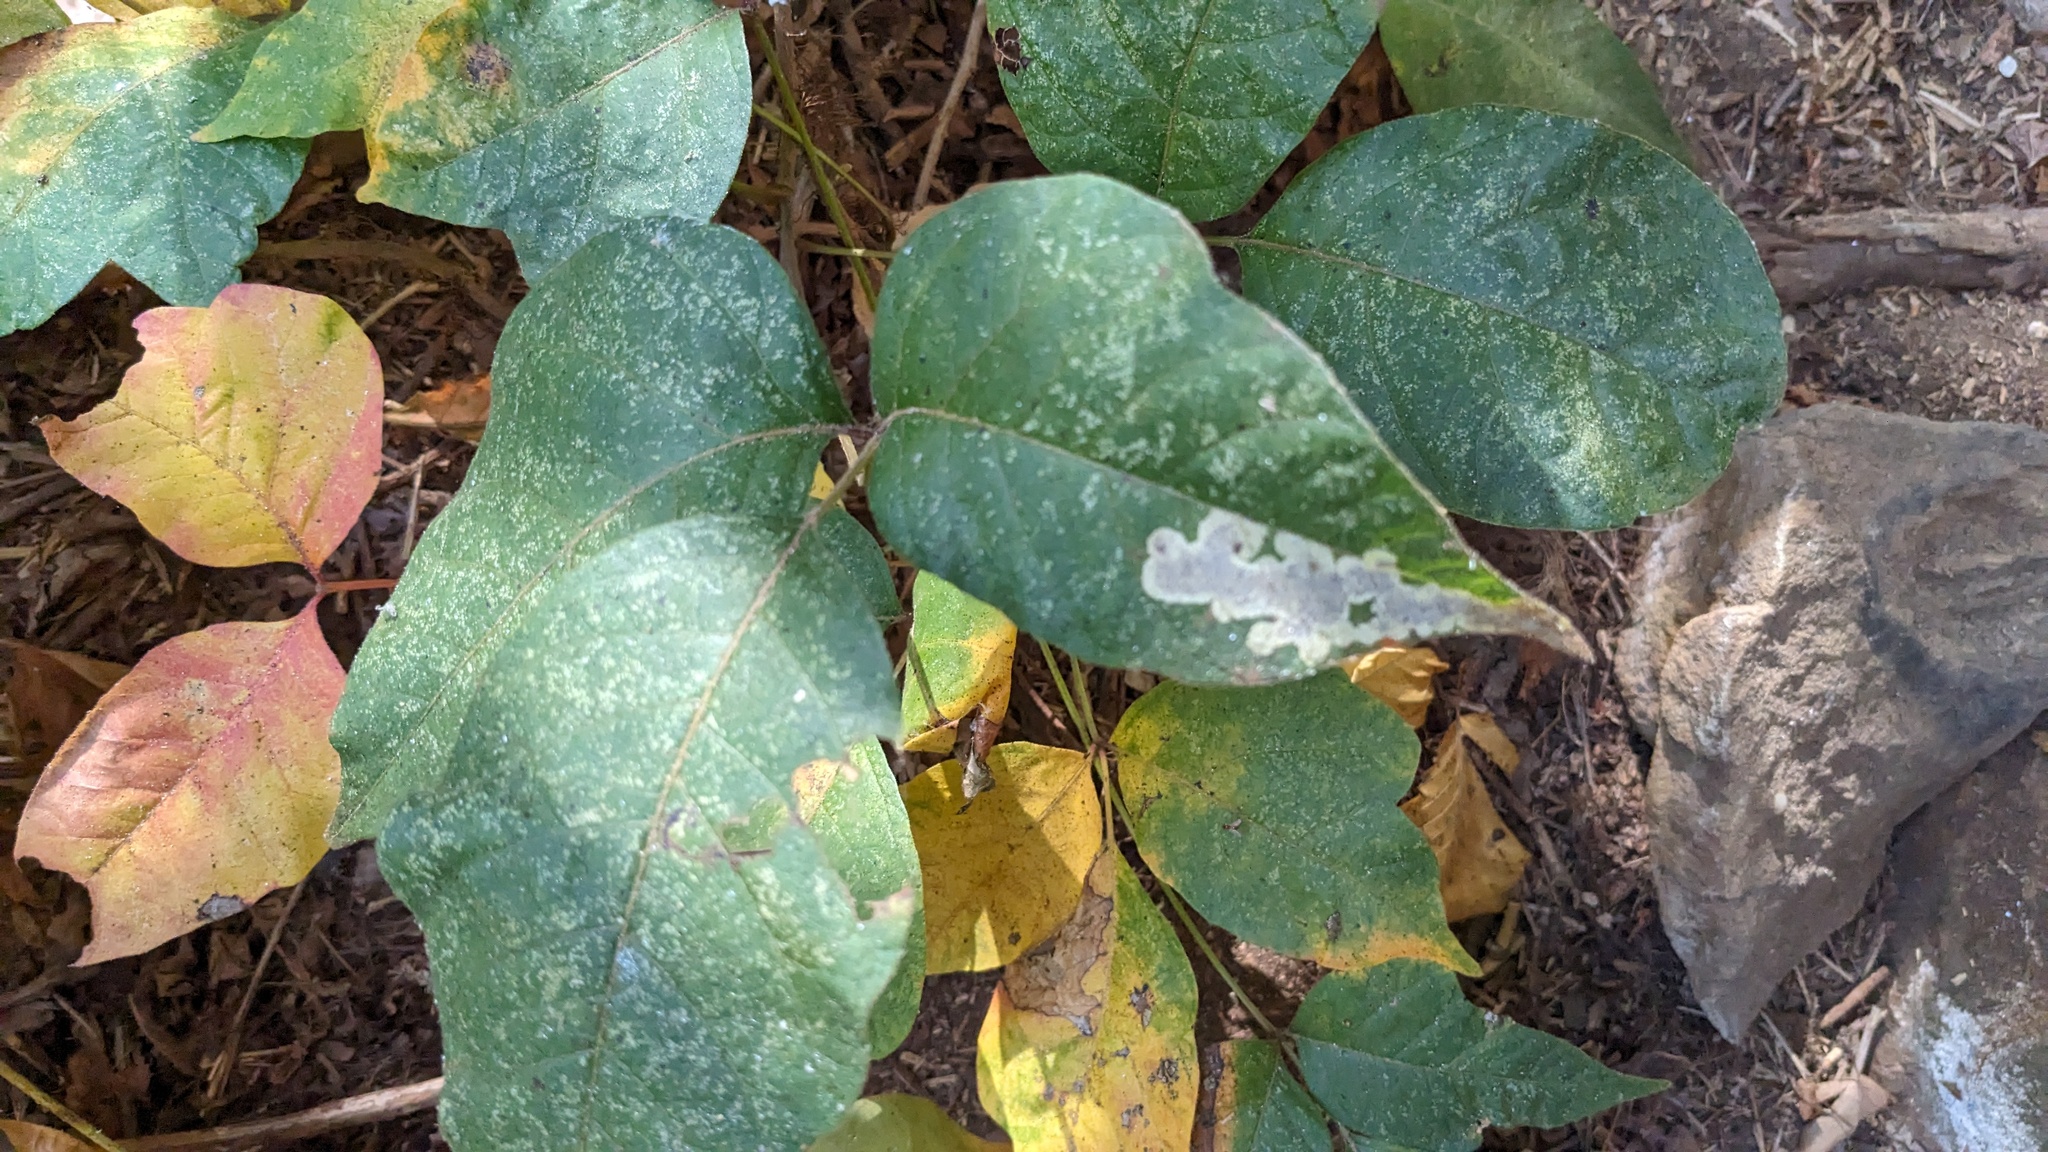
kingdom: Animalia
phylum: Arthropoda
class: Insecta
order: Lepidoptera
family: Gracillariidae
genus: Cameraria
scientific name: Cameraria guttifinitella
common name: Poison ivy leaf-miner moth
